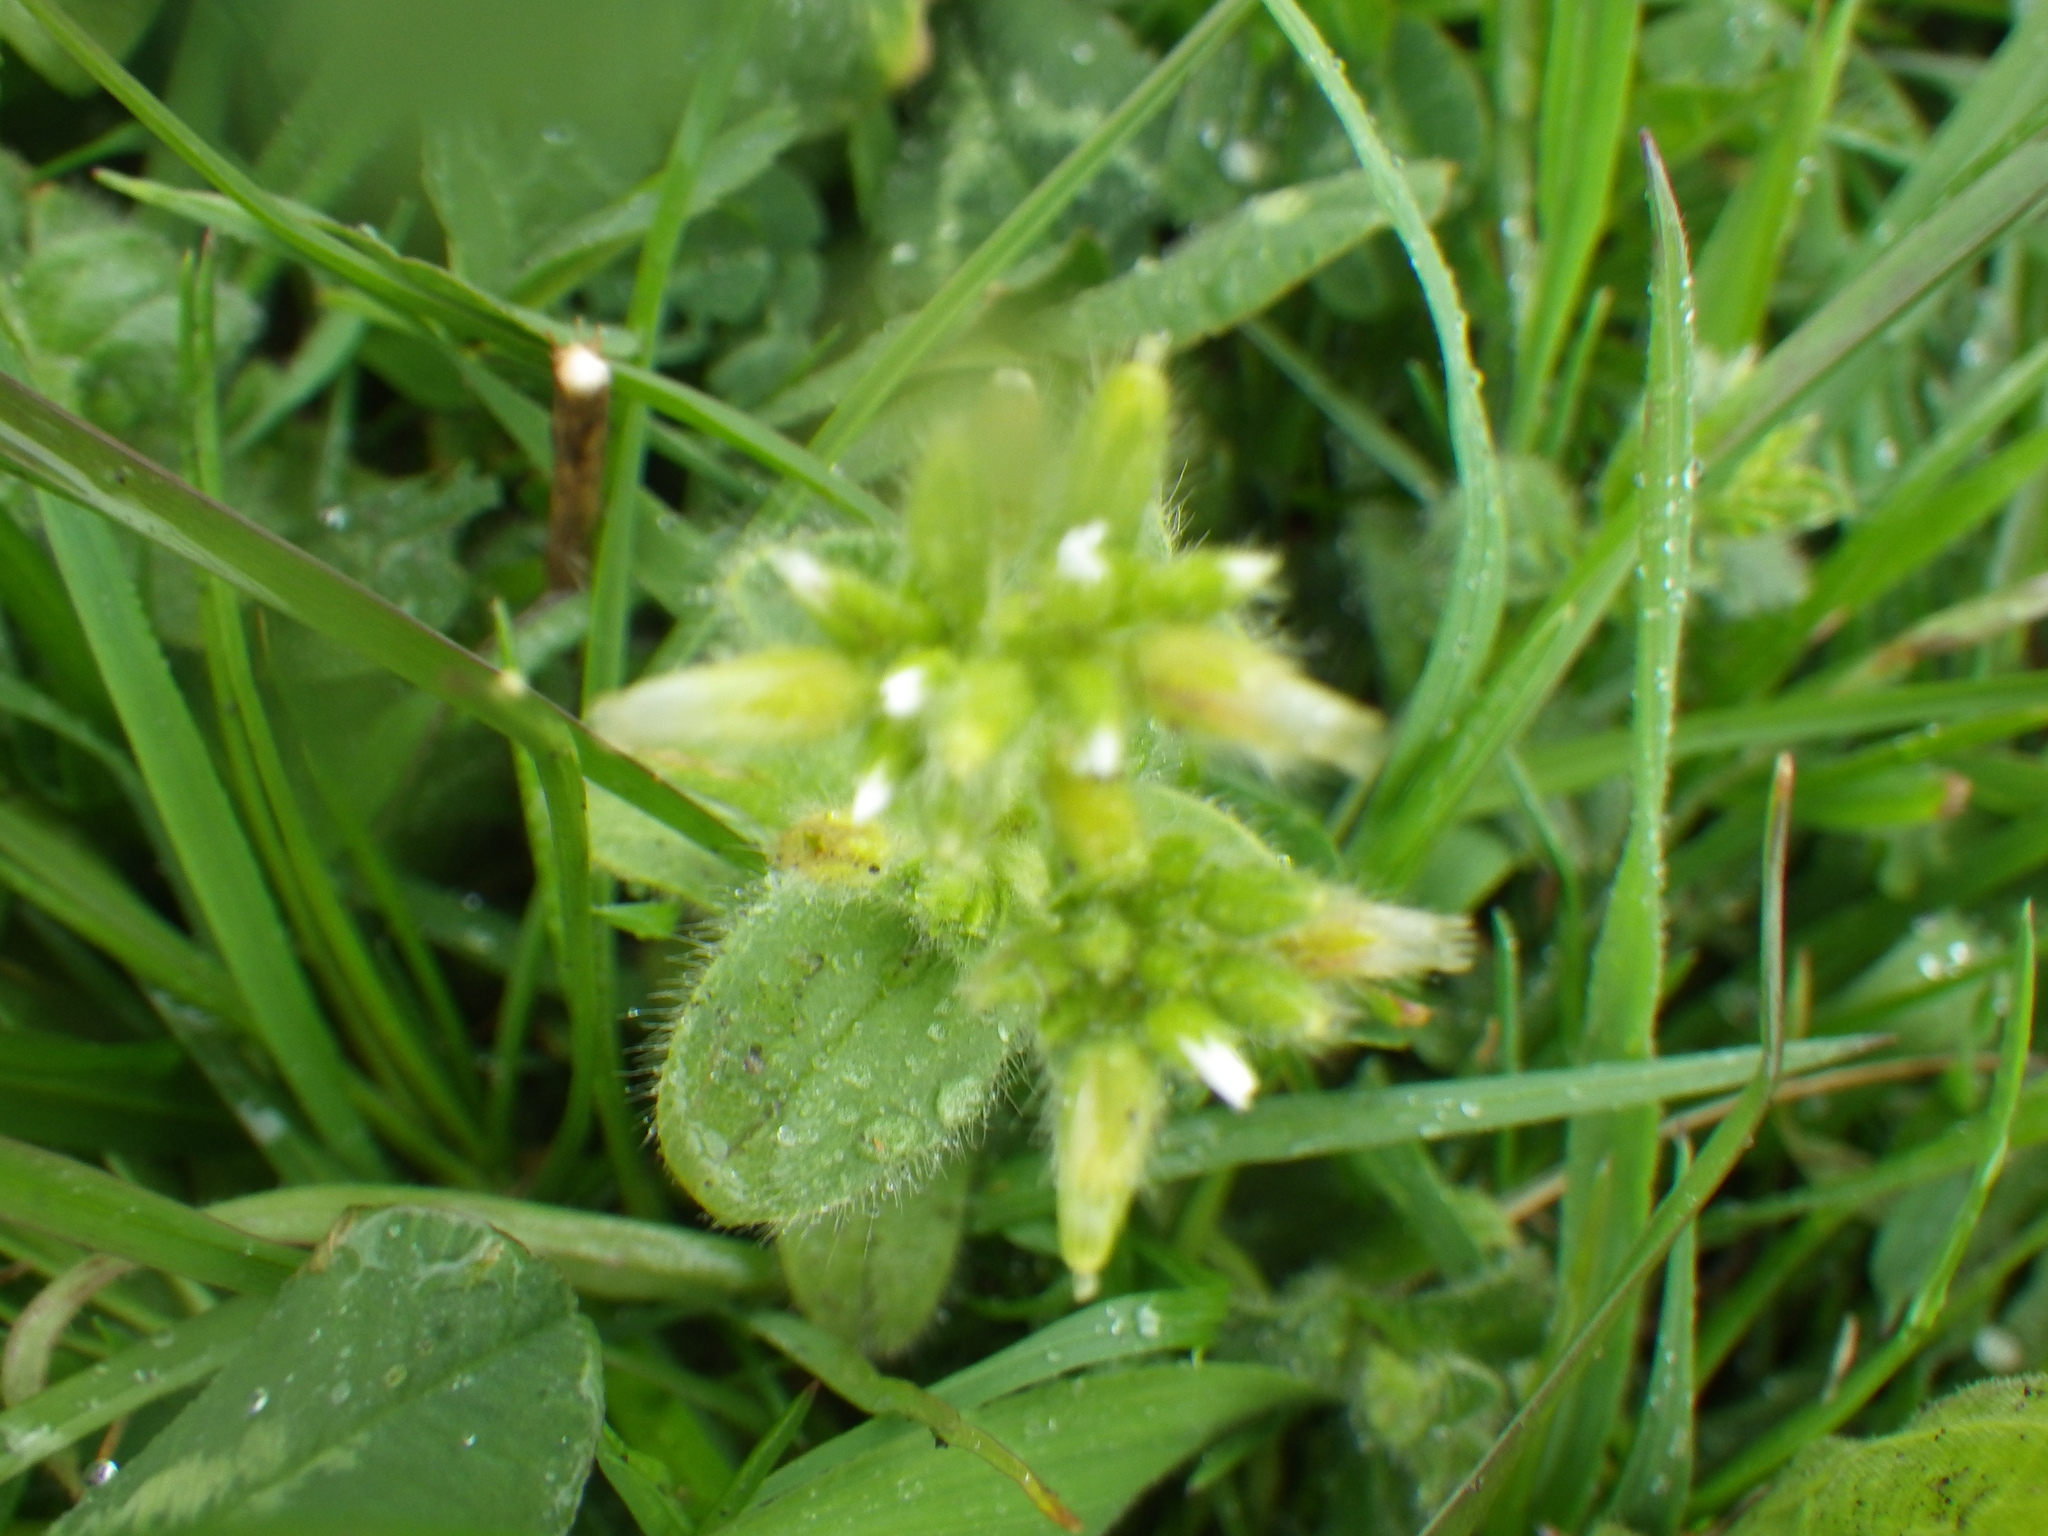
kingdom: Plantae
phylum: Tracheophyta
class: Magnoliopsida
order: Caryophyllales
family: Caryophyllaceae
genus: Cerastium
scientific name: Cerastium glomeratum
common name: Sticky chickweed
